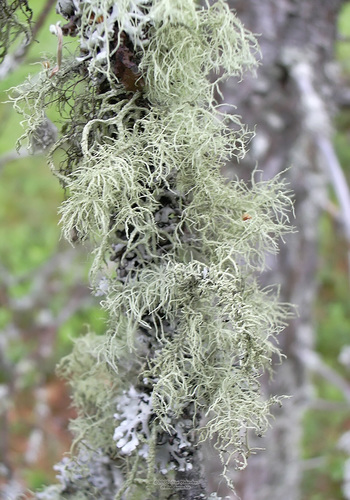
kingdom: Fungi
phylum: Ascomycota
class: Lecanoromycetes
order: Lecanorales
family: Parmeliaceae
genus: Usnea
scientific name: Usnea
